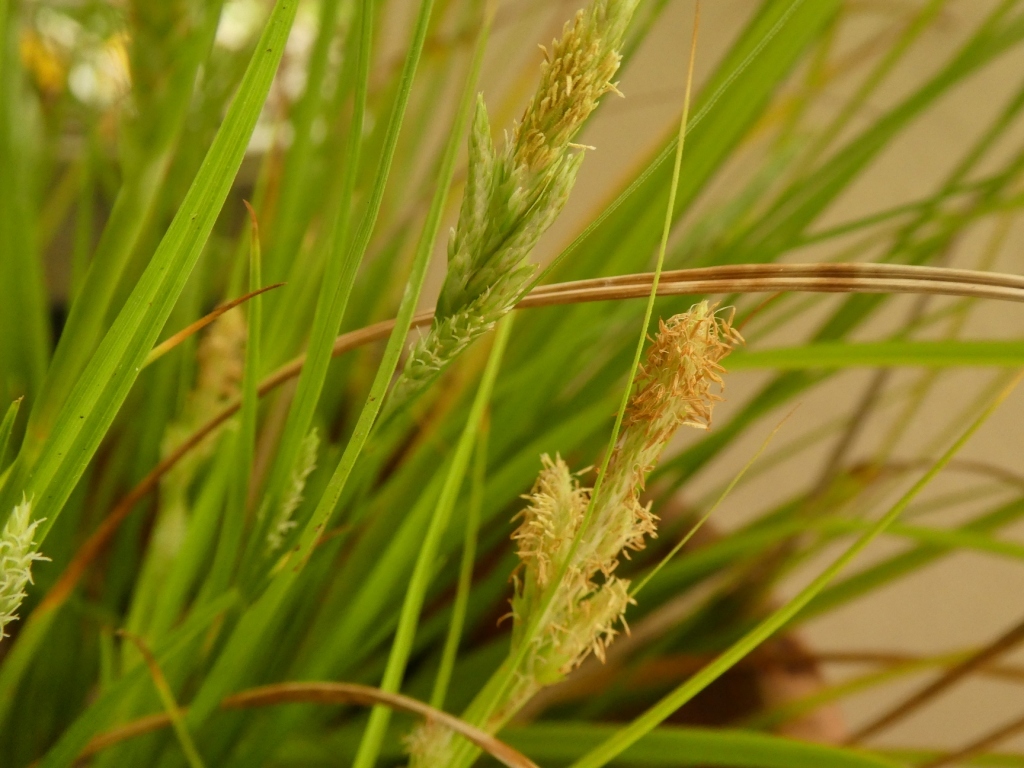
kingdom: Plantae
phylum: Tracheophyta
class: Liliopsida
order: Poales
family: Cyperaceae
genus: Carex
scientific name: Carex bermudiana
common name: Bermuda sedge
